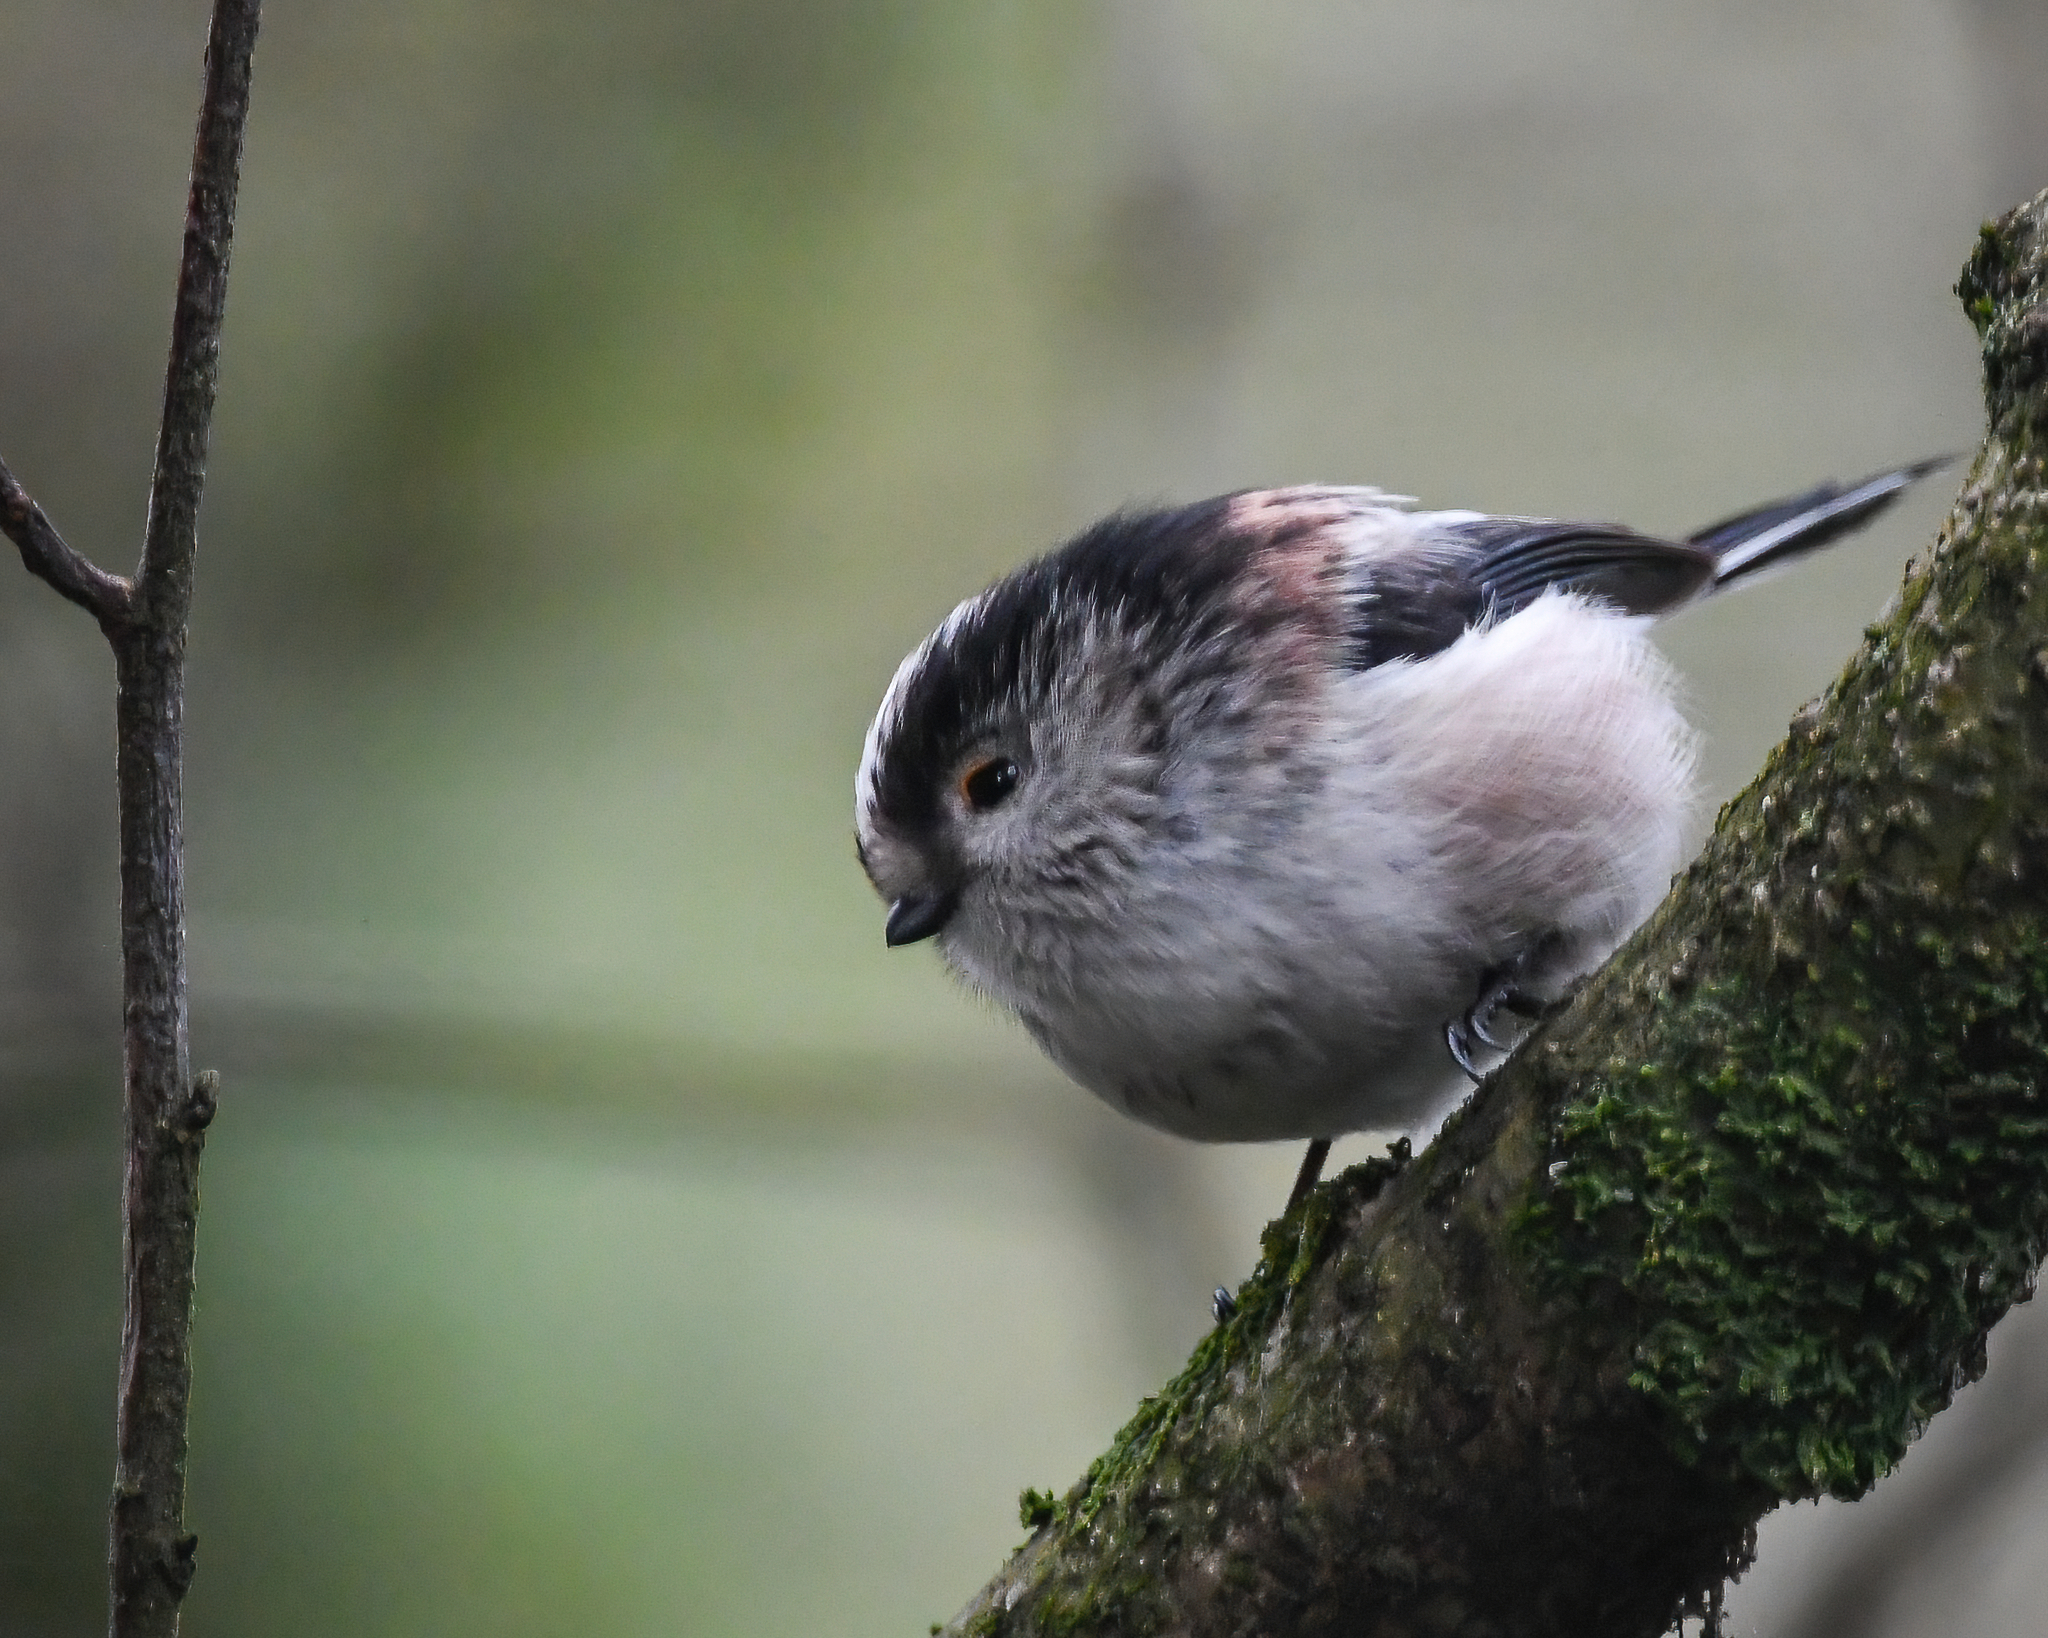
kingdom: Animalia
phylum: Chordata
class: Aves
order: Passeriformes
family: Aegithalidae
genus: Aegithalos
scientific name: Aegithalos caudatus
